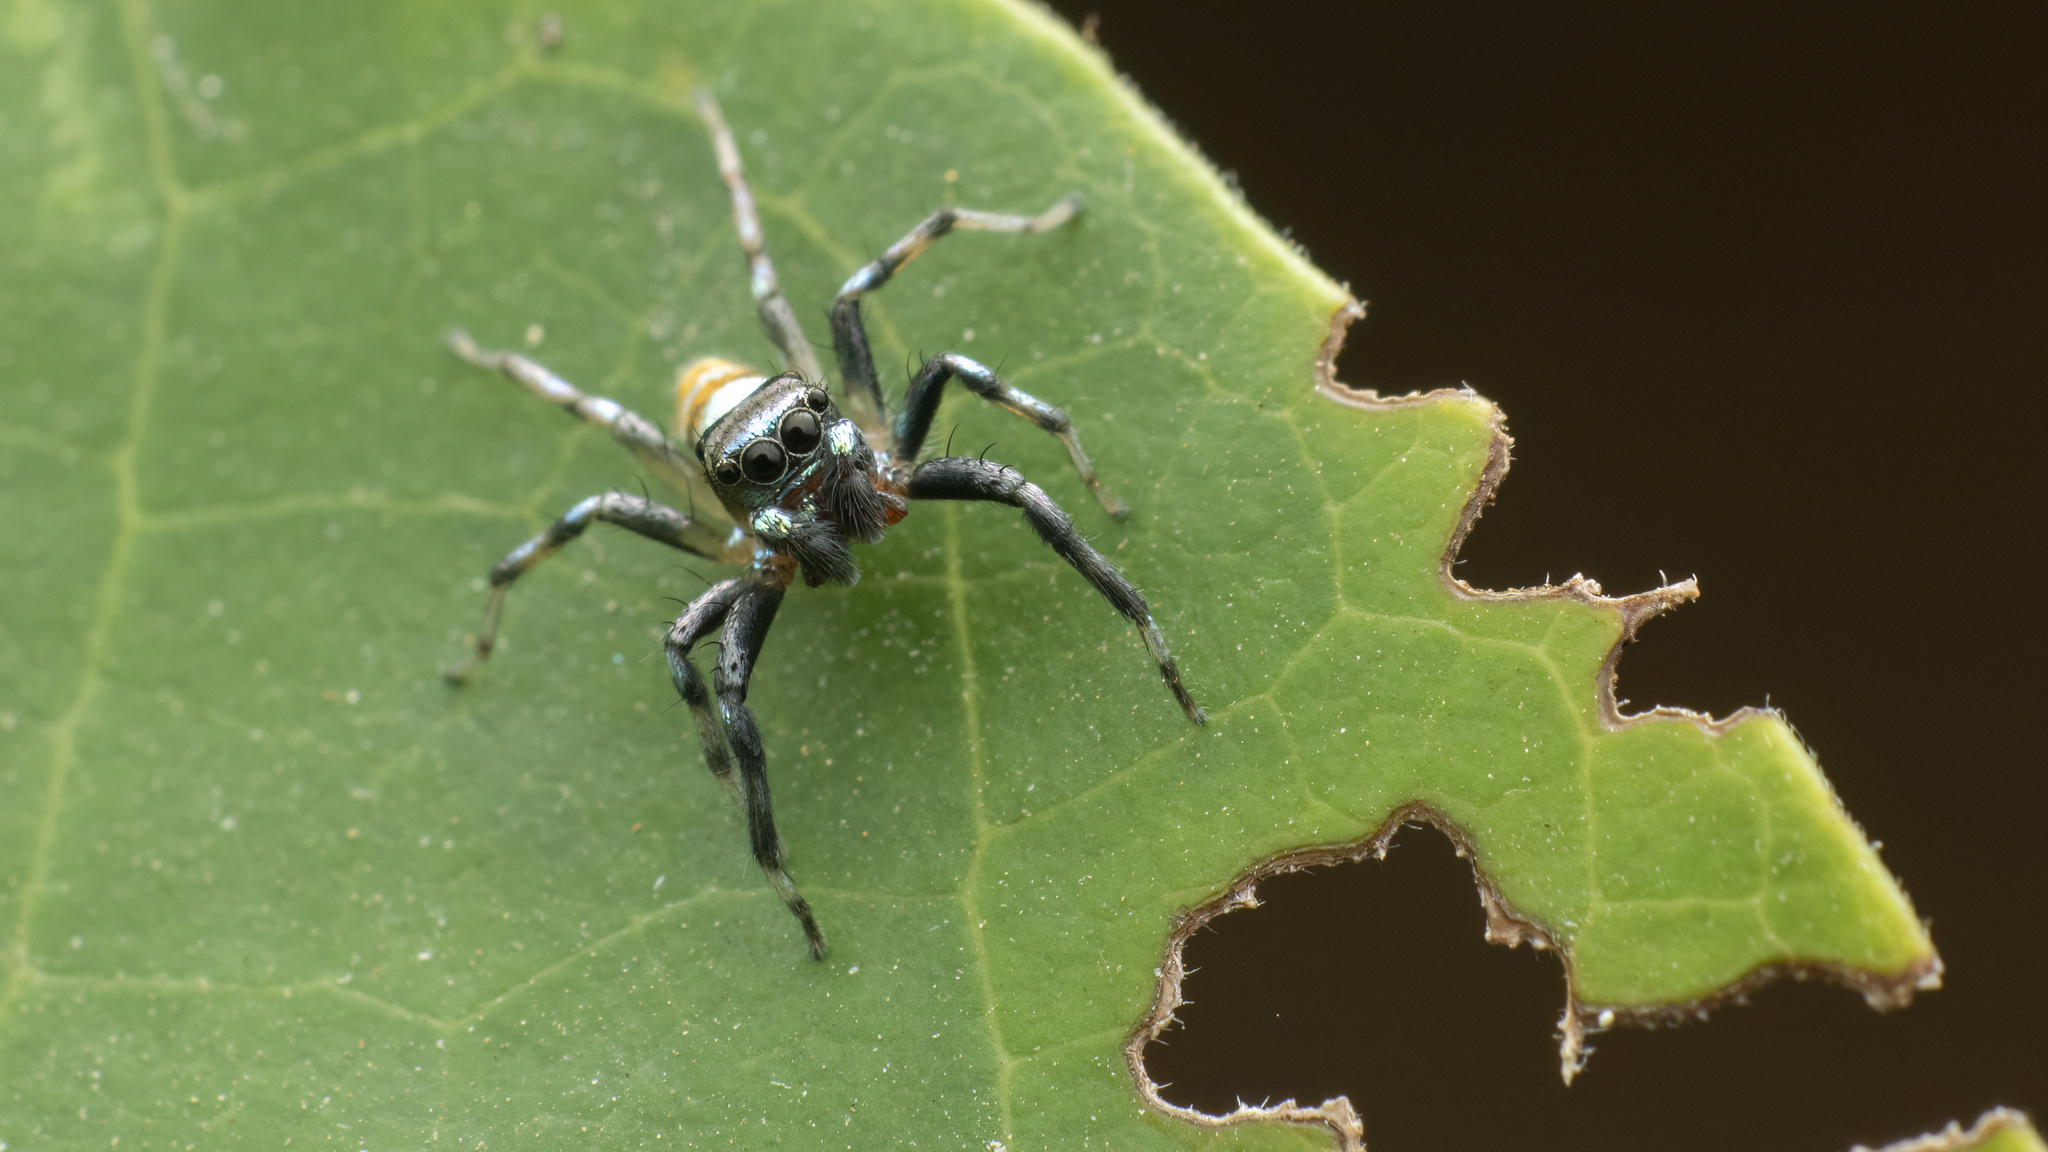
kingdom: Animalia
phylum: Arthropoda
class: Arachnida
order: Araneae
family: Salticidae
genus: Phintella
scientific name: Phintella vittata
